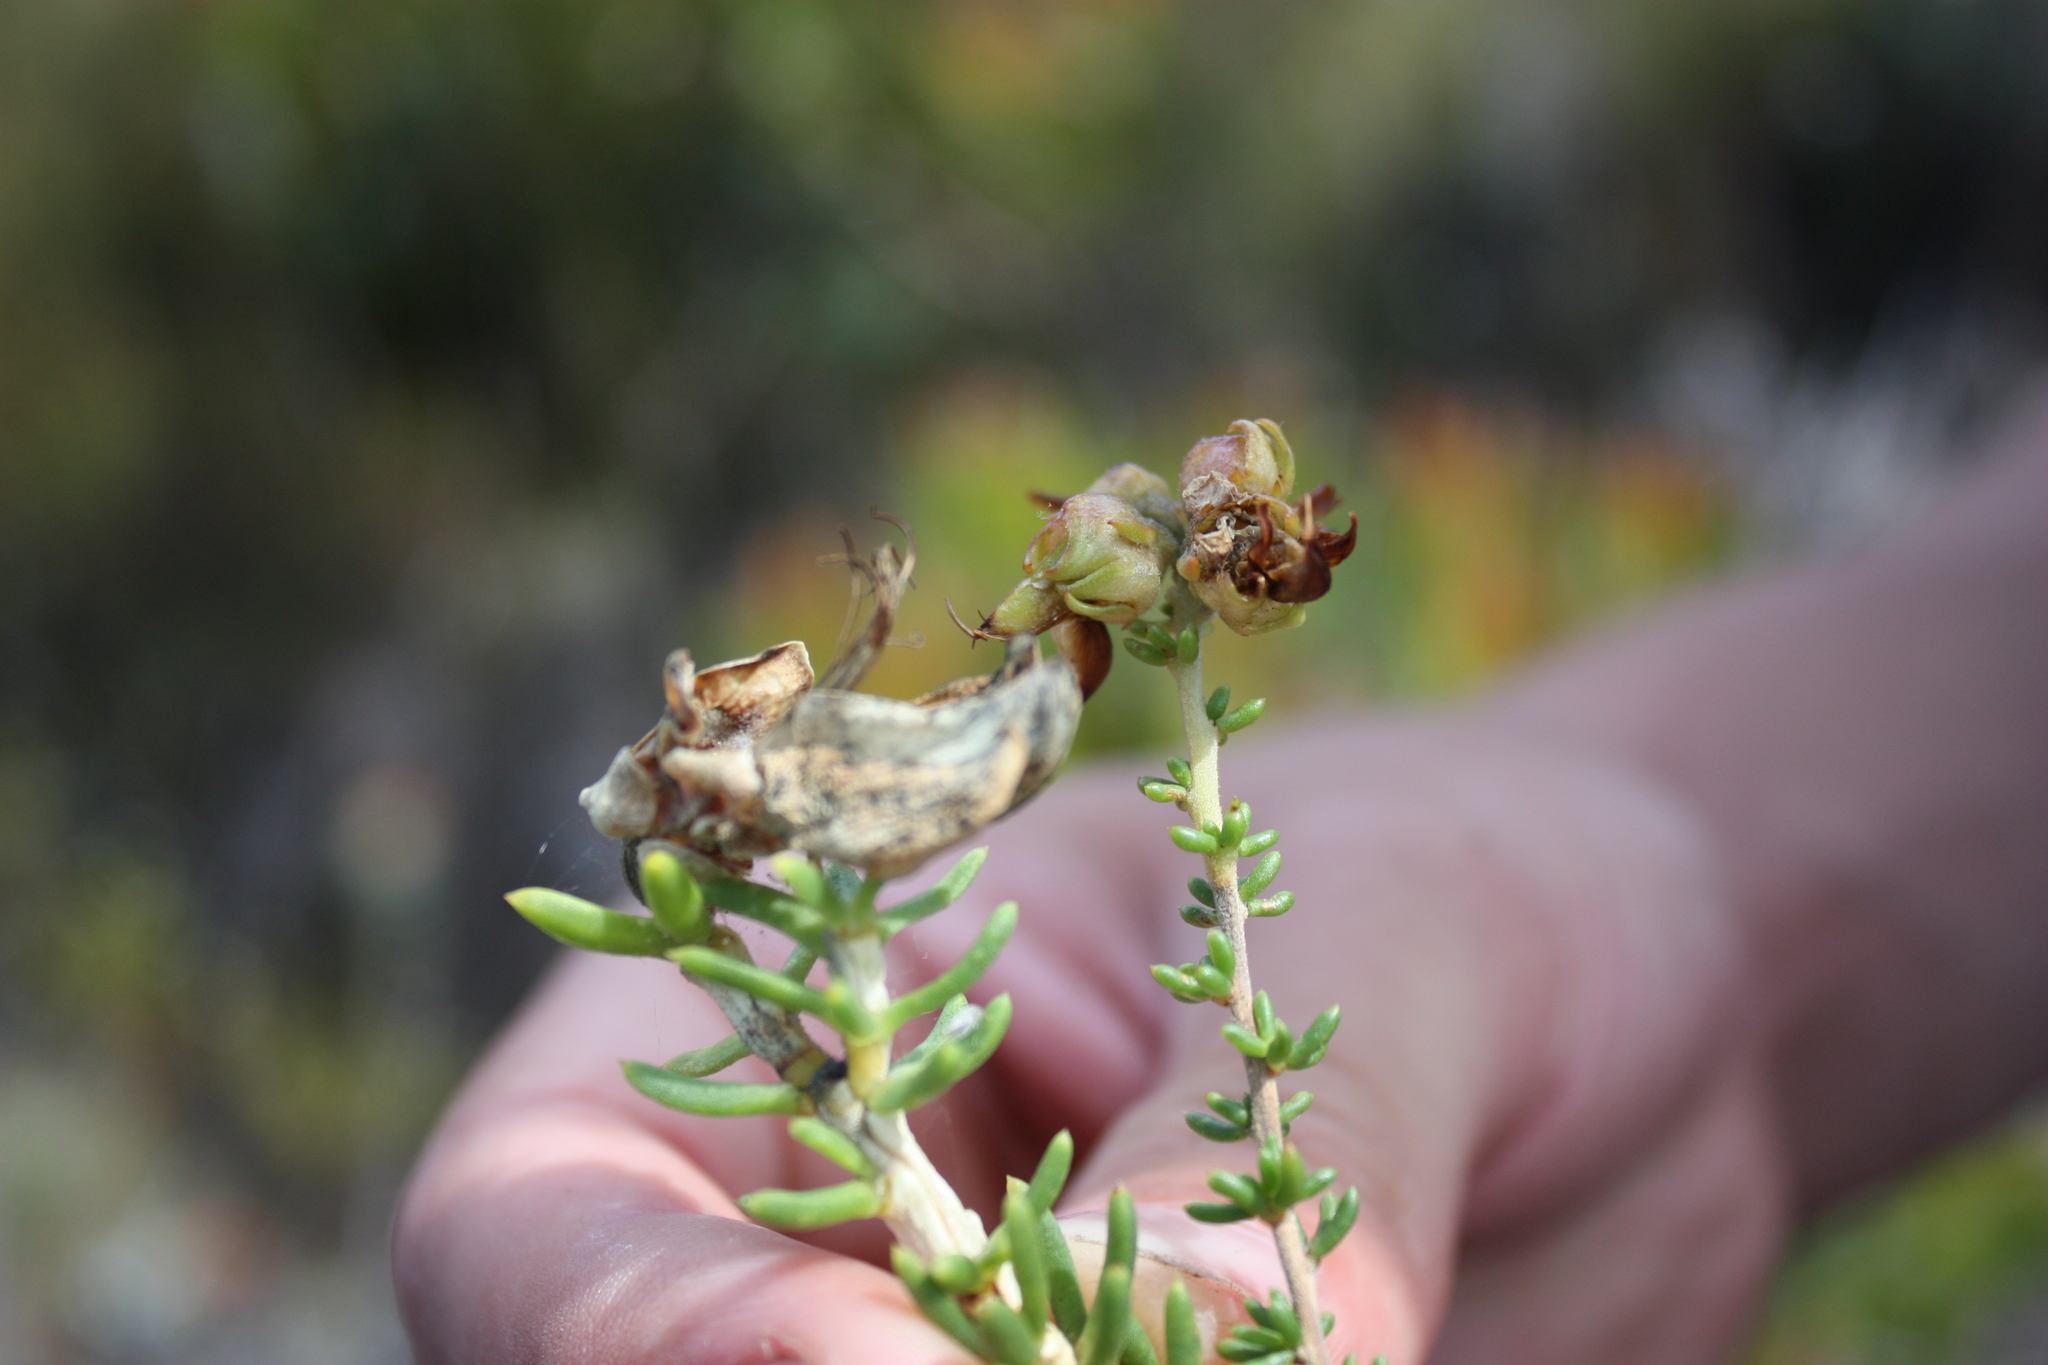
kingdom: Plantae
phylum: Tracheophyta
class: Magnoliopsida
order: Fabales
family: Fabaceae
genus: Aspalathus
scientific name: Aspalathus carnosa
